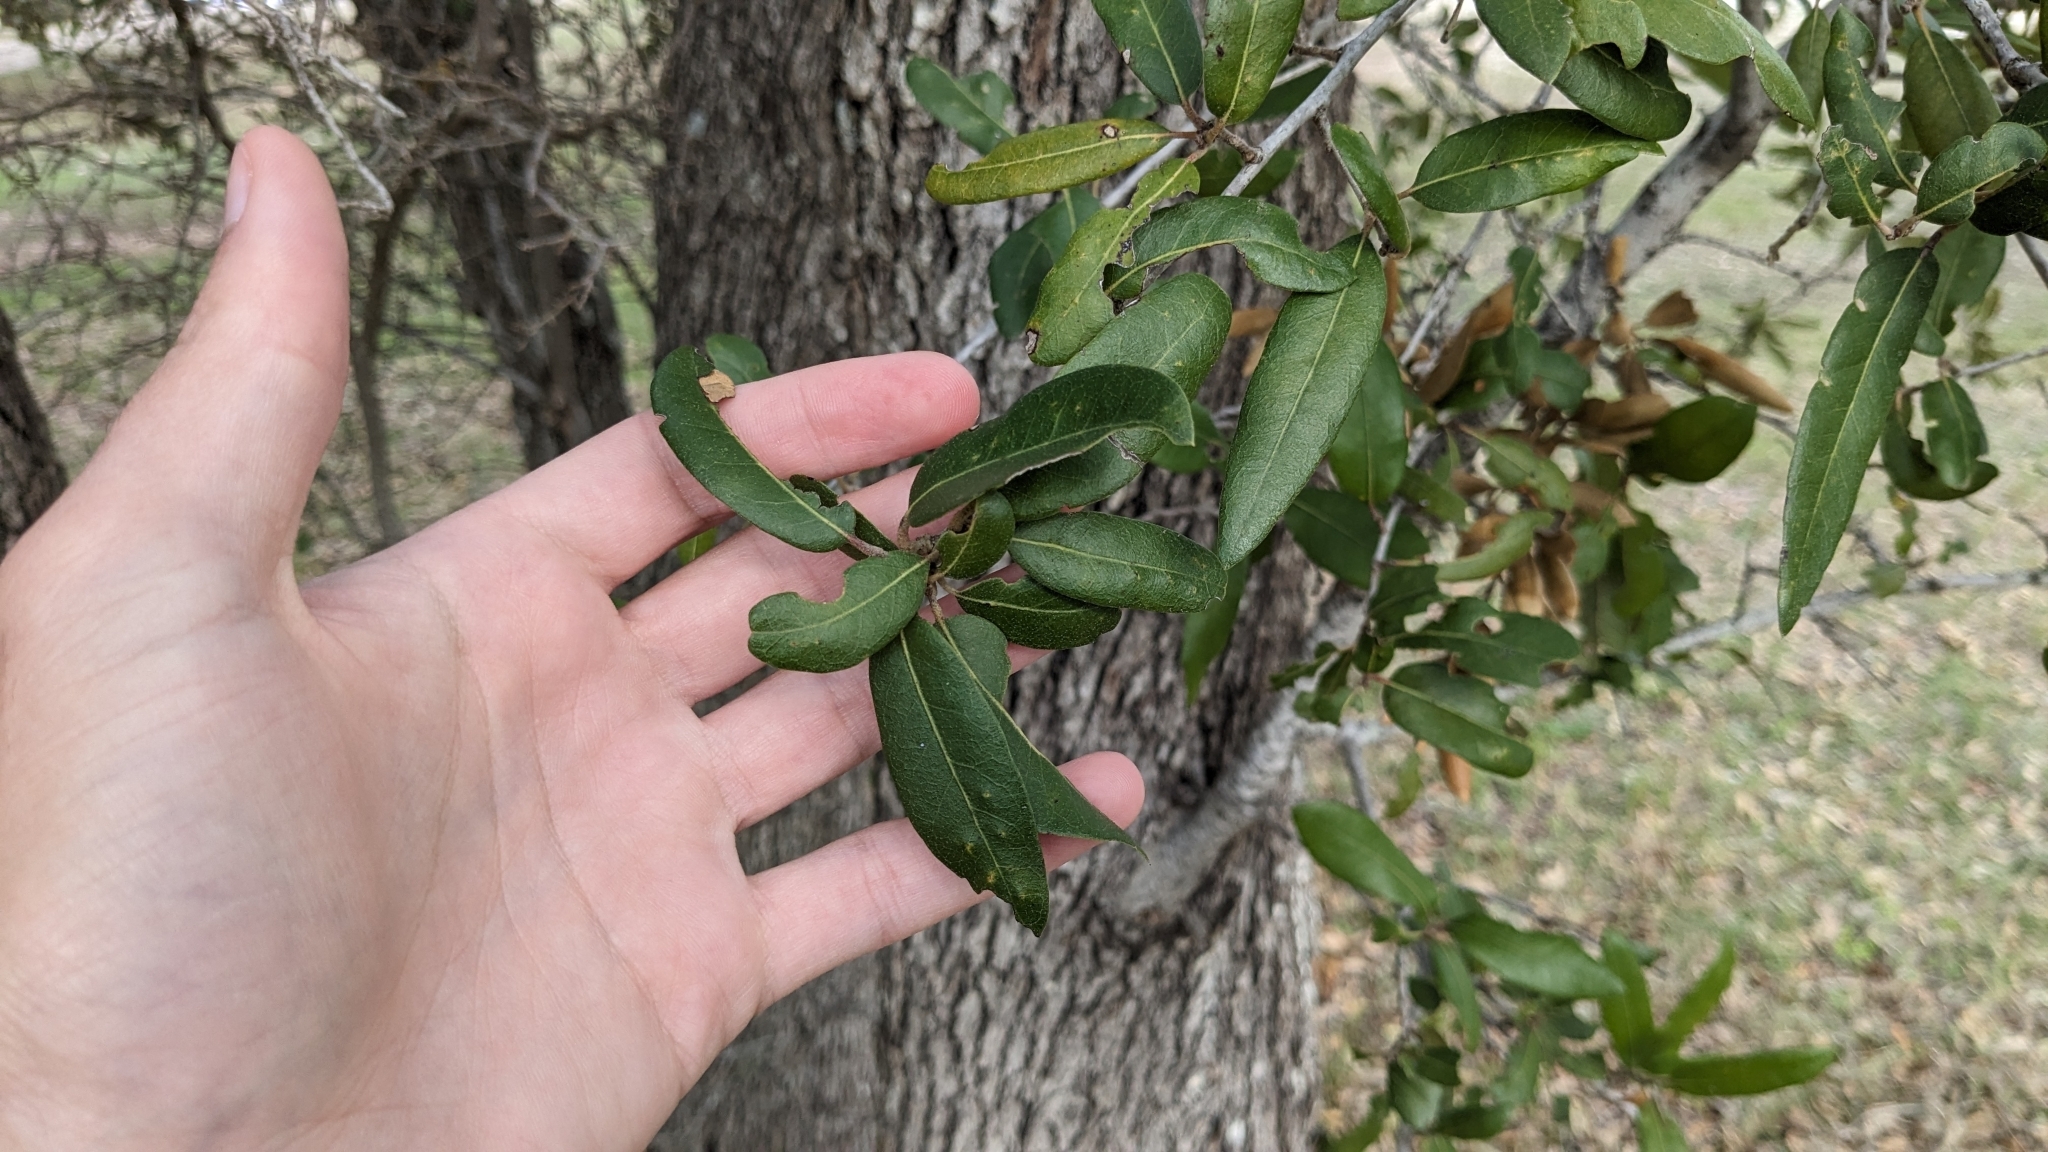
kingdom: Animalia
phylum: Arthropoda
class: Insecta
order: Hymenoptera
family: Cynipidae
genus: Disholcaspis
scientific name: Disholcaspis
